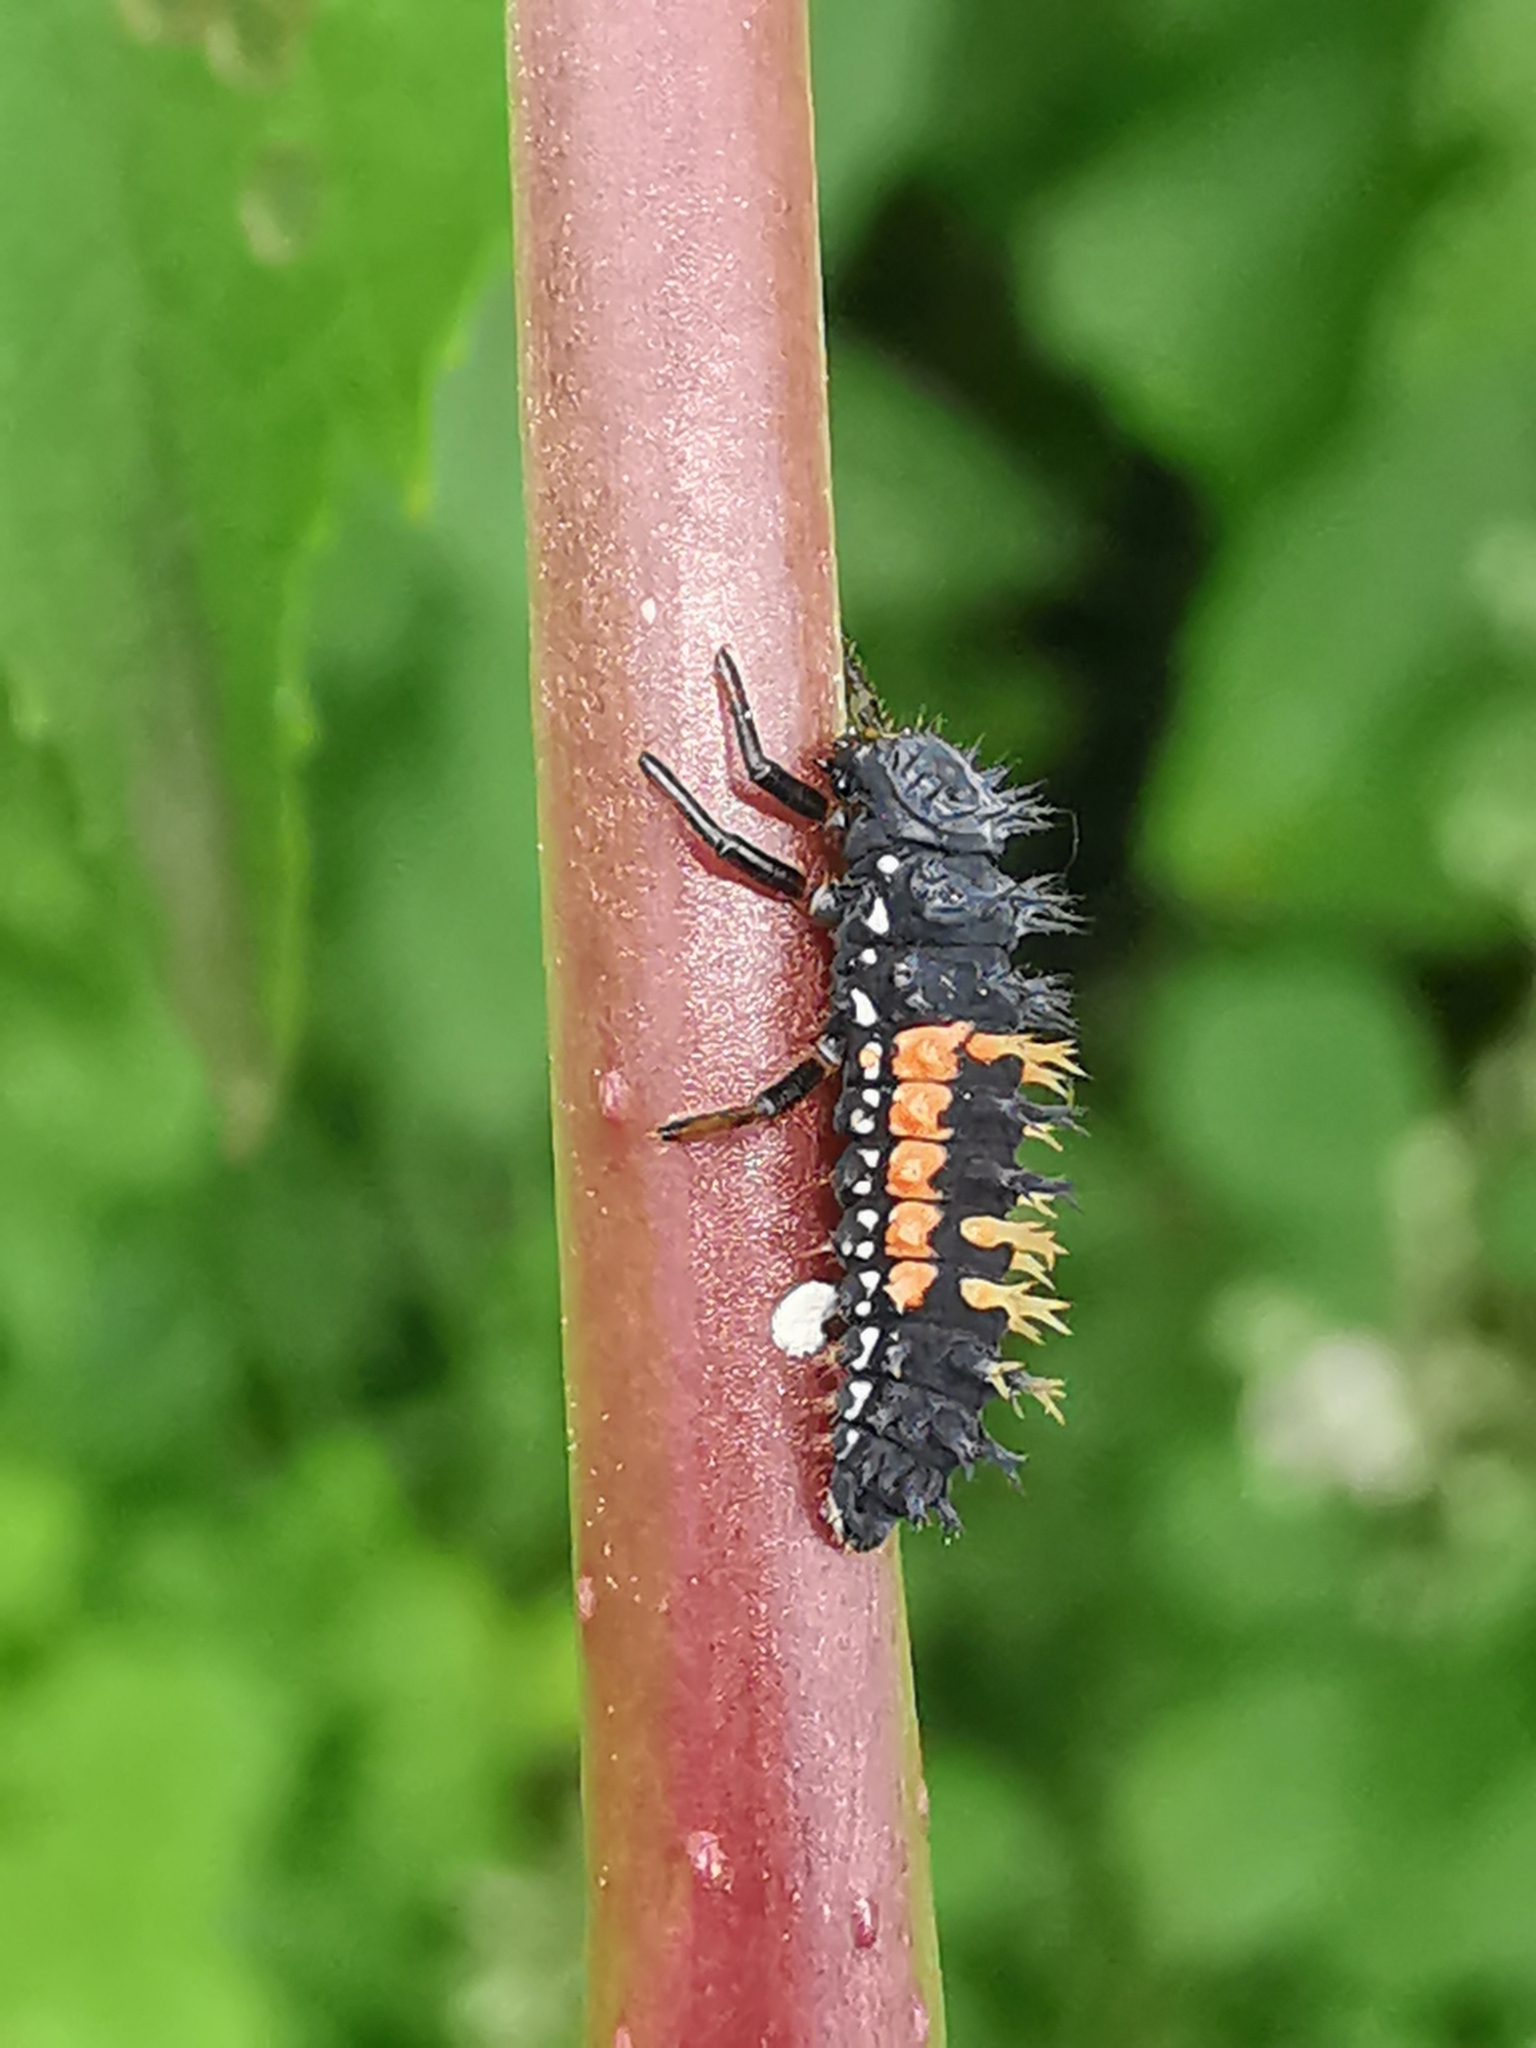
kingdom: Animalia
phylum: Arthropoda
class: Insecta
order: Coleoptera
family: Coccinellidae
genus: Harmonia
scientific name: Harmonia axyridis
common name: Harlequin ladybird
